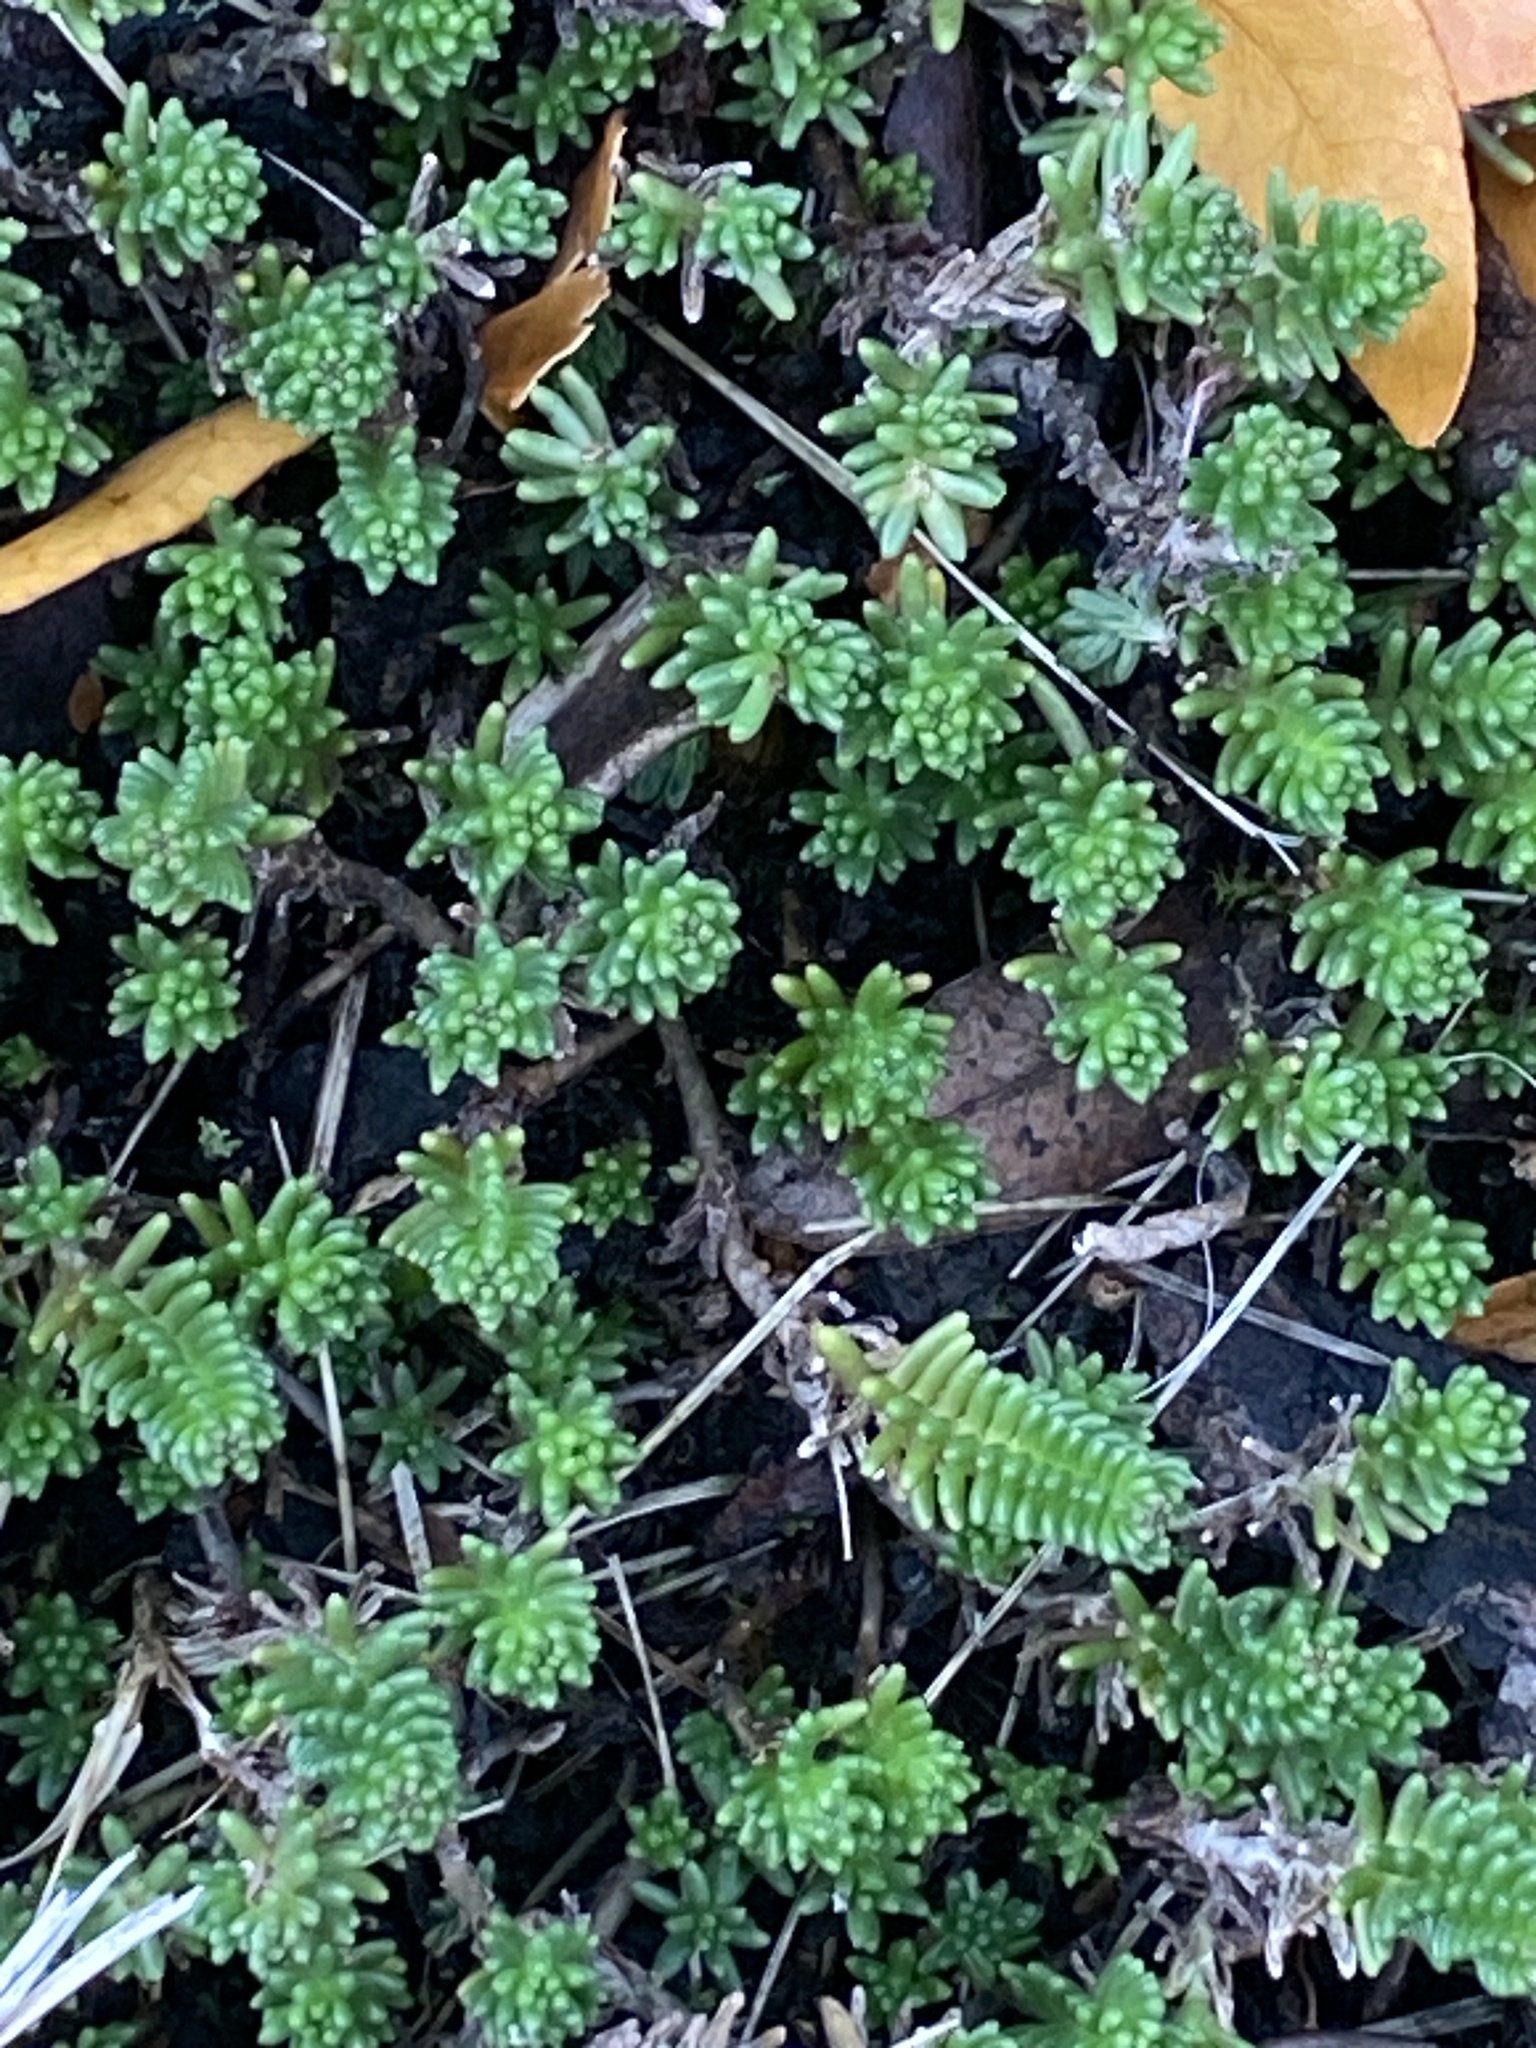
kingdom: Plantae
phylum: Tracheophyta
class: Magnoliopsida
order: Saxifragales
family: Crassulaceae
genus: Sedum
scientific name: Sedum sexangulare
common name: Tasteless stonecrop
